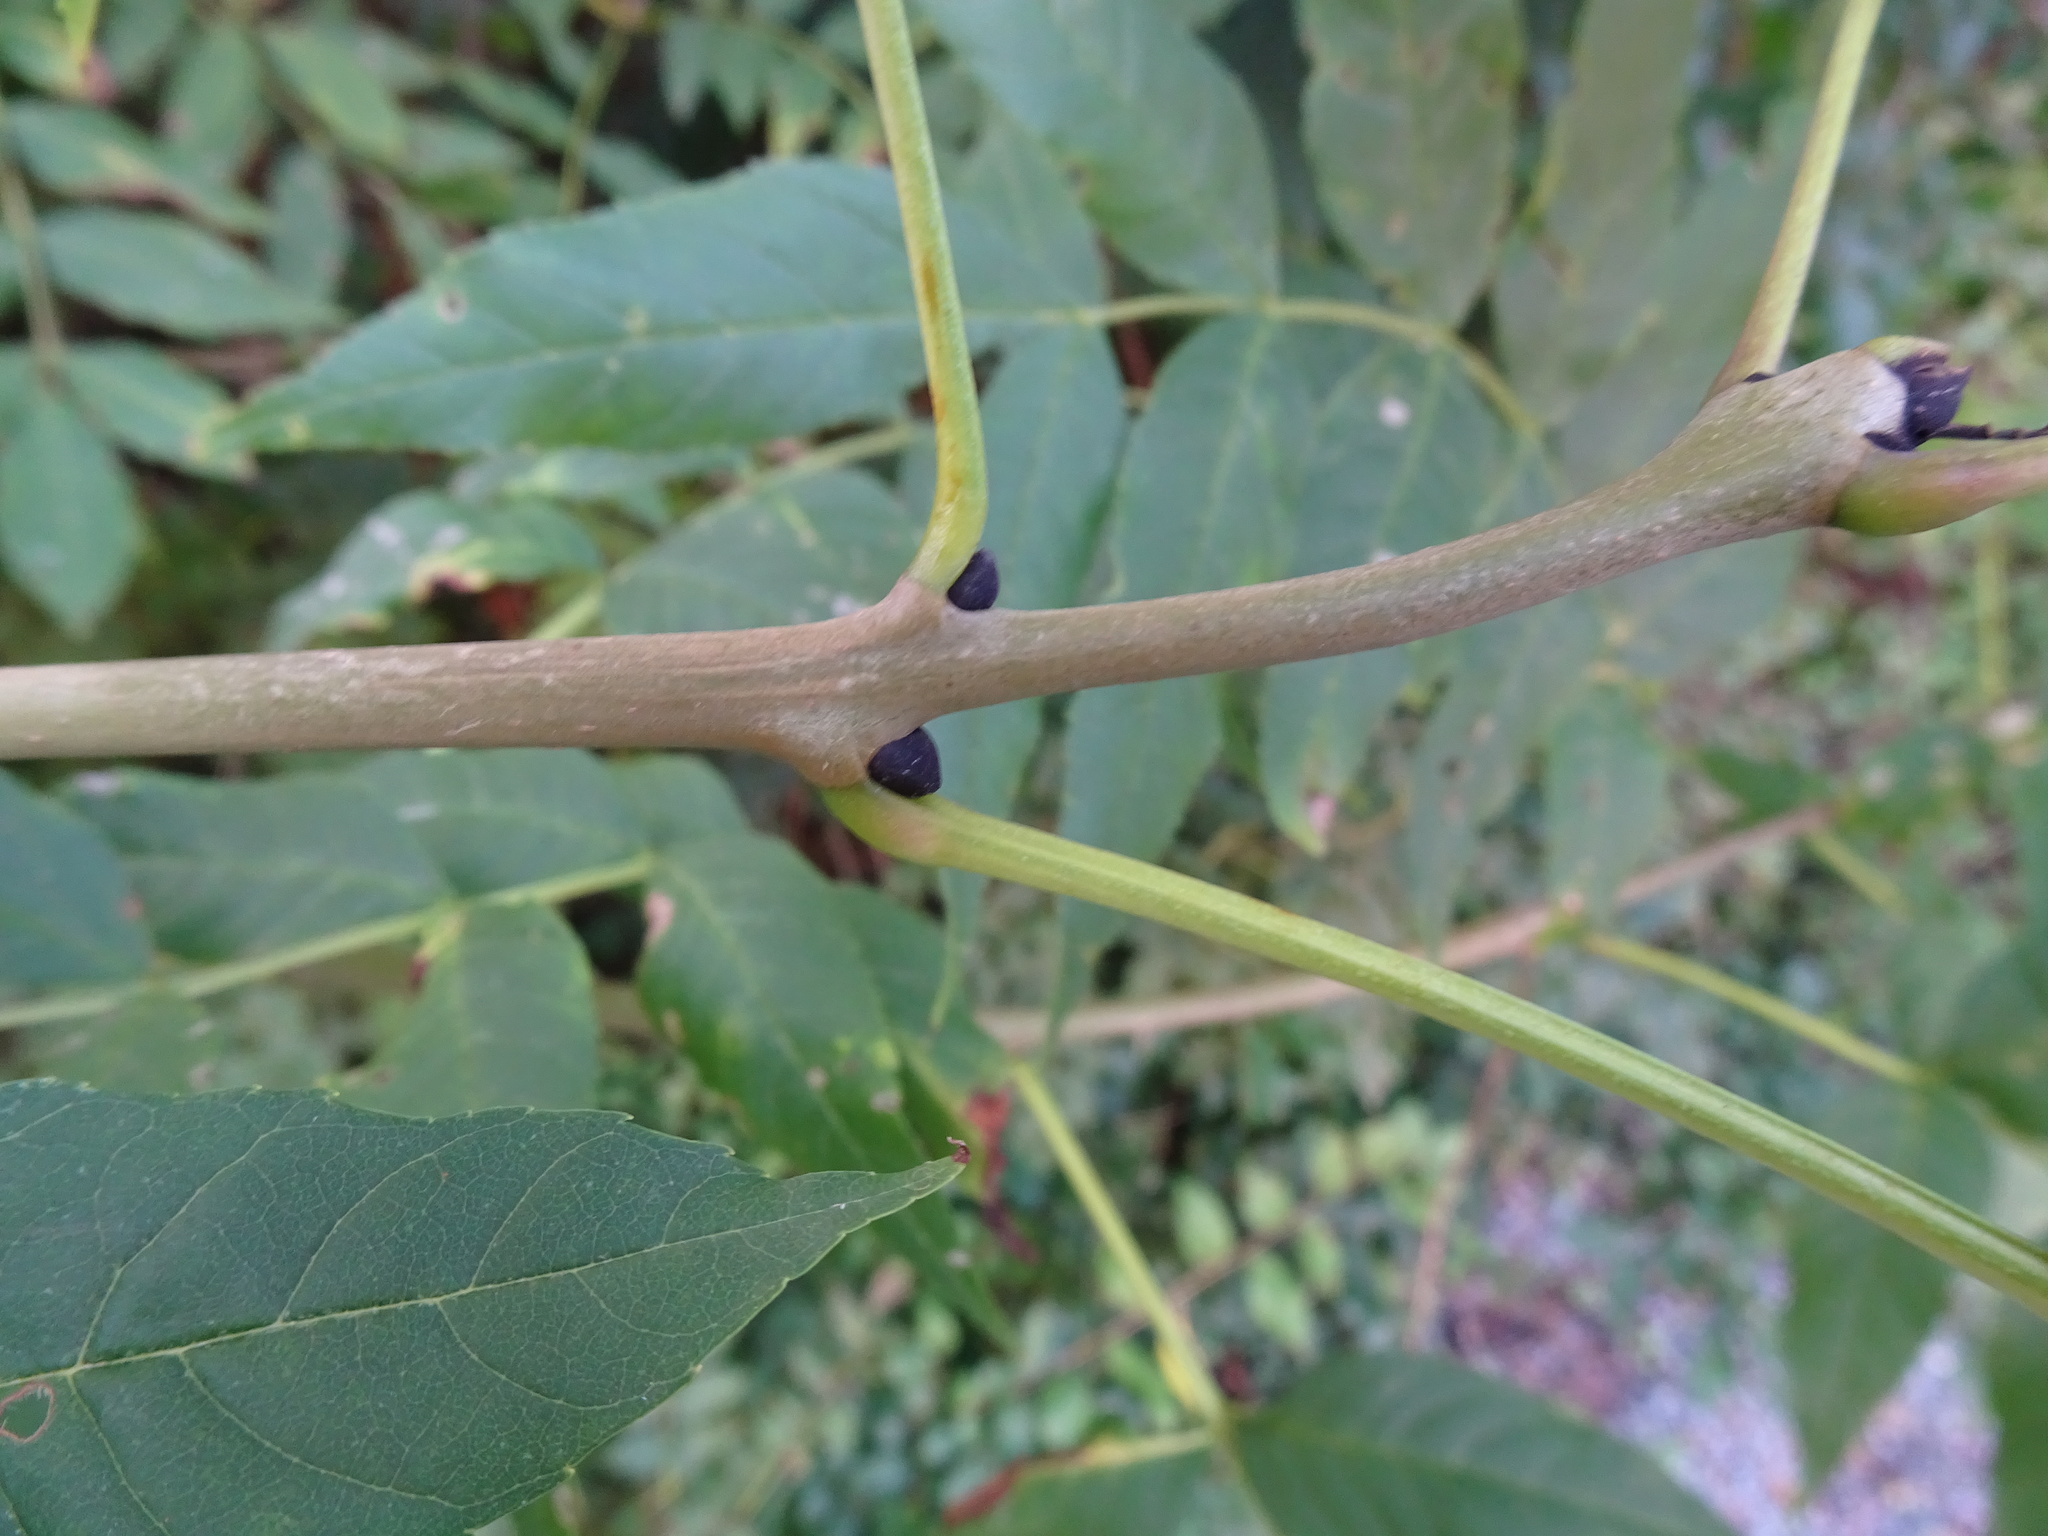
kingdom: Plantae
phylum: Tracheophyta
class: Magnoliopsida
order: Lamiales
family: Oleaceae
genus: Fraxinus
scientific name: Fraxinus excelsior
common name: European ash
